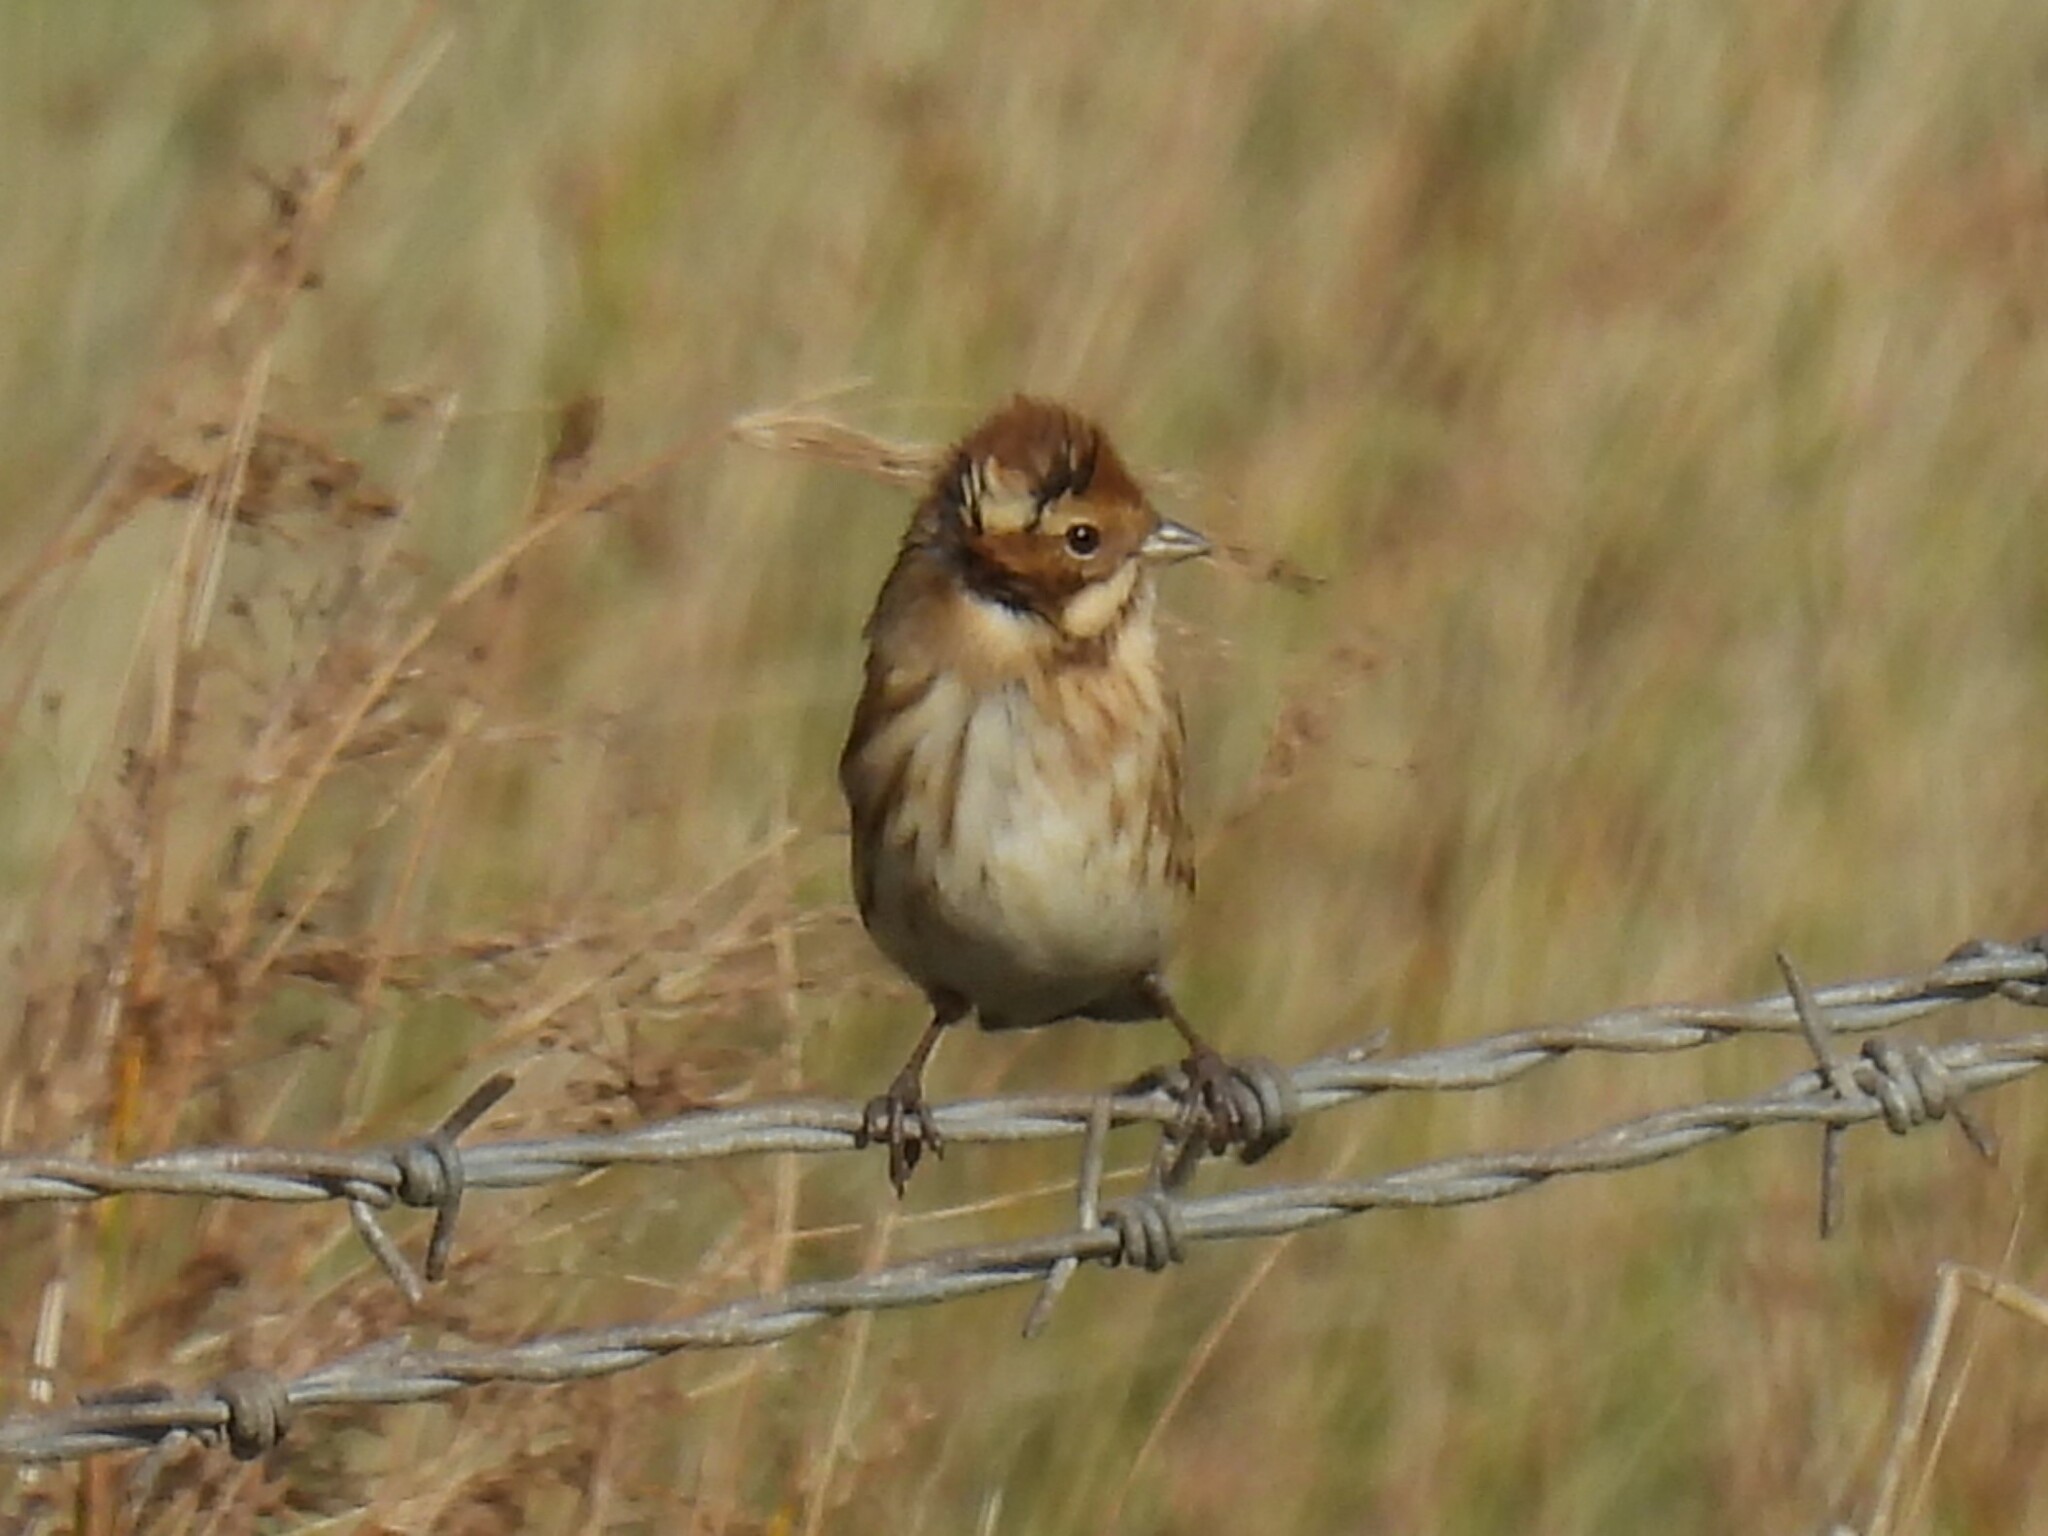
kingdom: Animalia
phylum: Chordata
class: Aves
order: Passeriformes
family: Emberizidae
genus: Emberiza
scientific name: Emberiza schoeniclus
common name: Reed bunting
